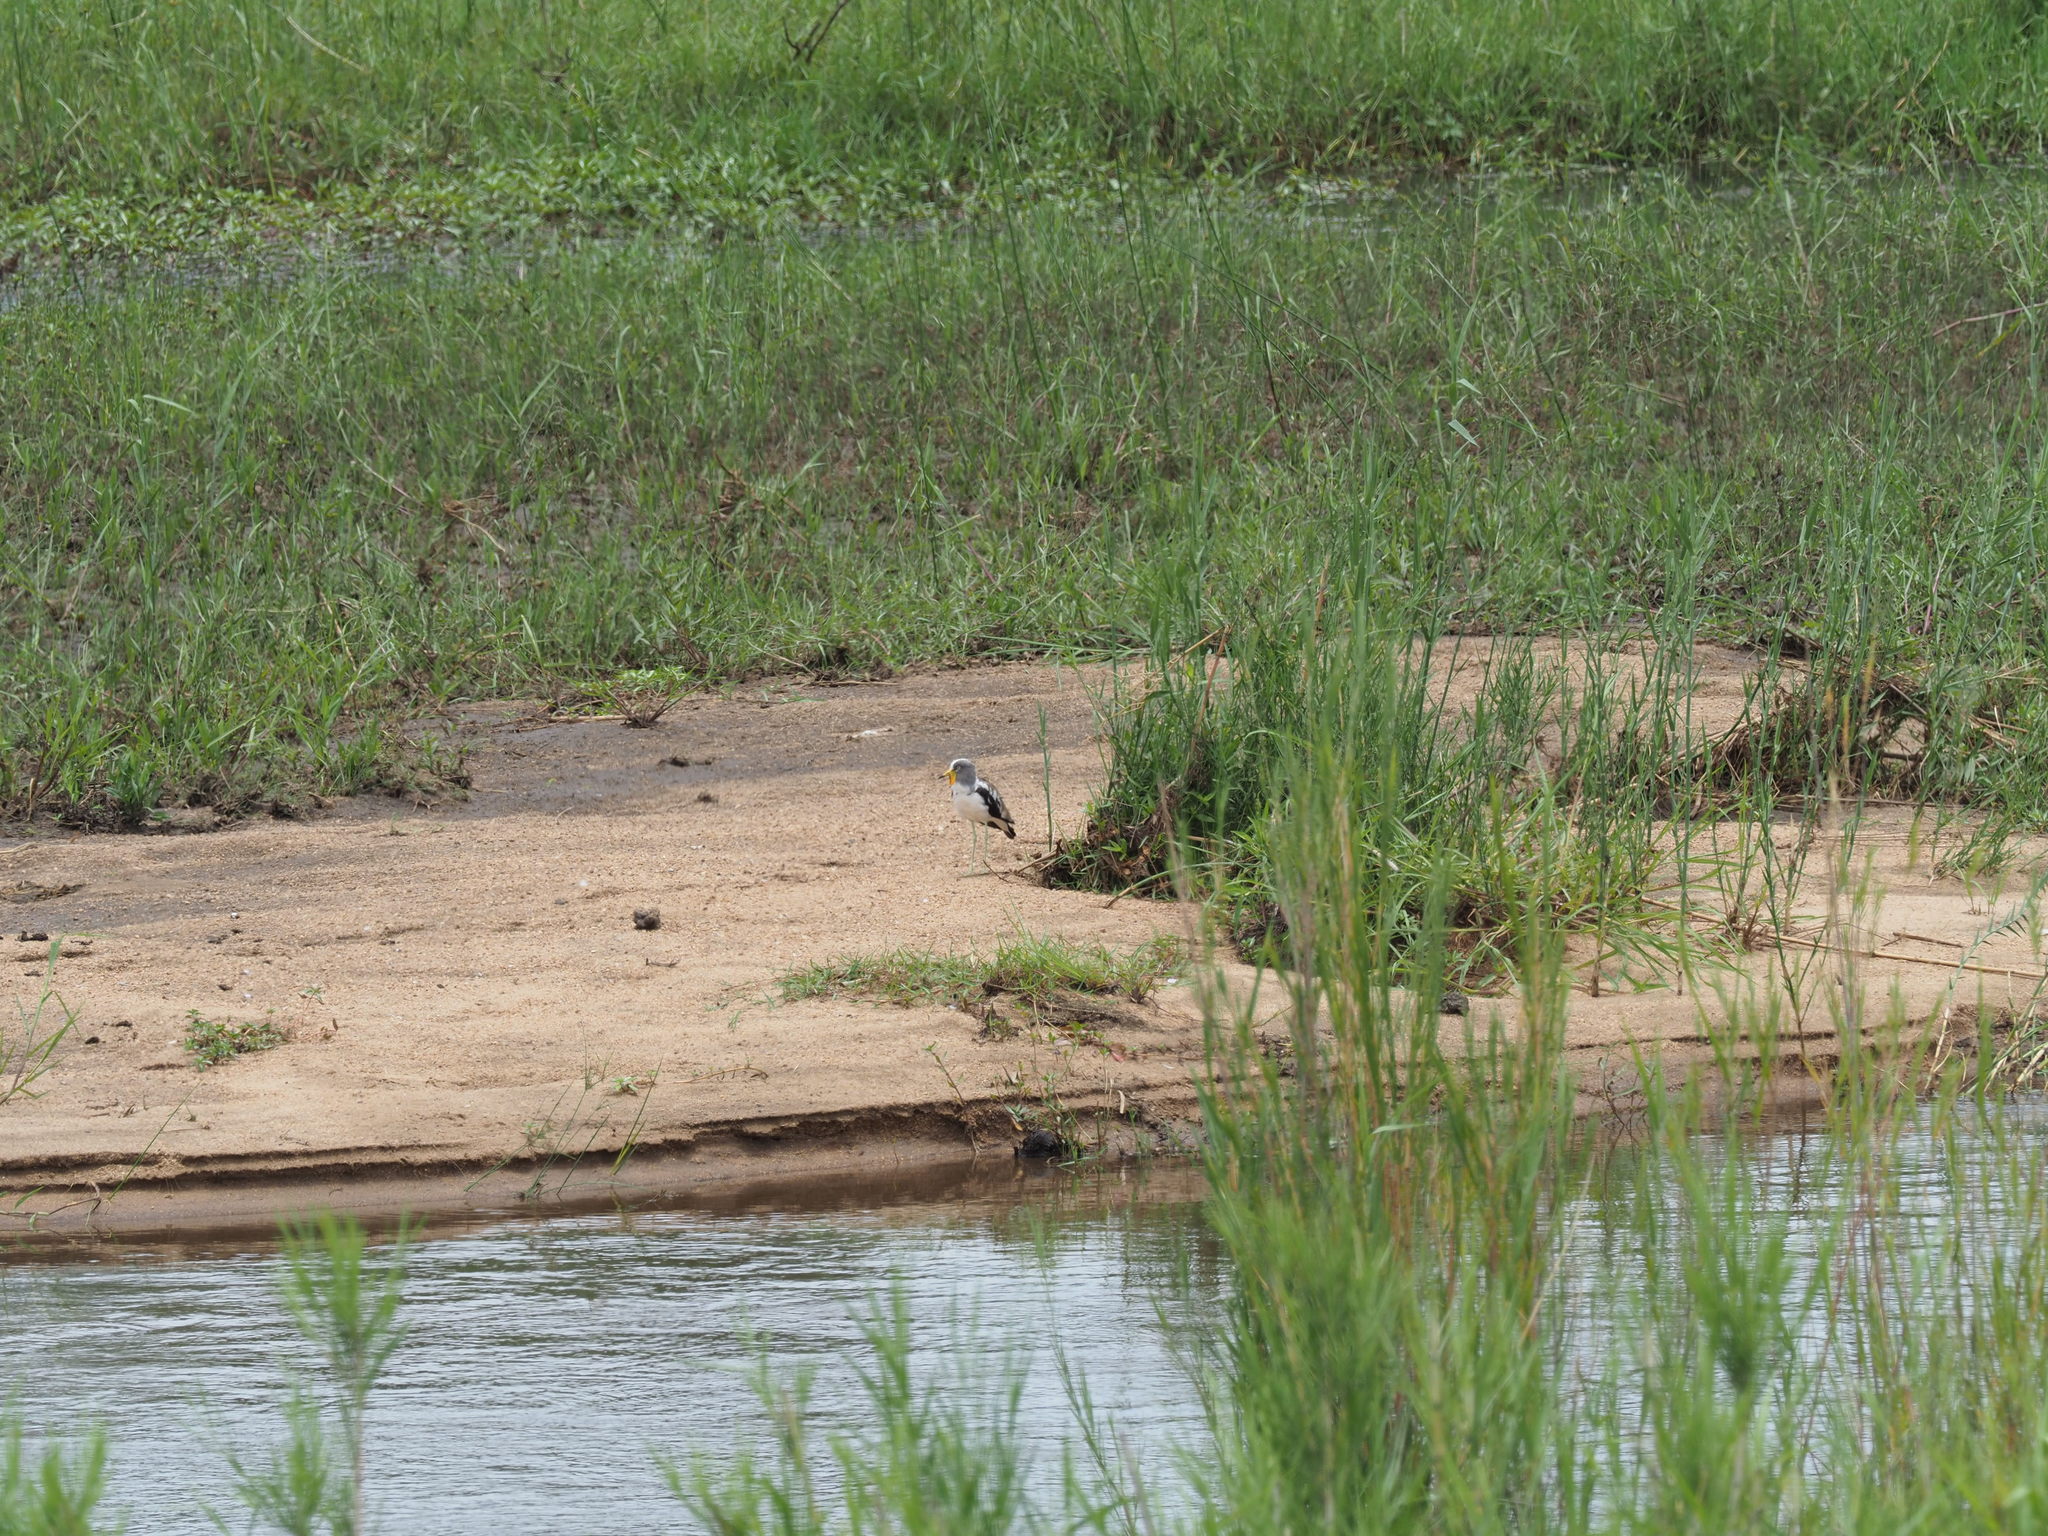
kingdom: Animalia
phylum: Chordata
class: Aves
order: Charadriiformes
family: Charadriidae
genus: Vanellus
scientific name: Vanellus albiceps
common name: White-crowned lapwing
